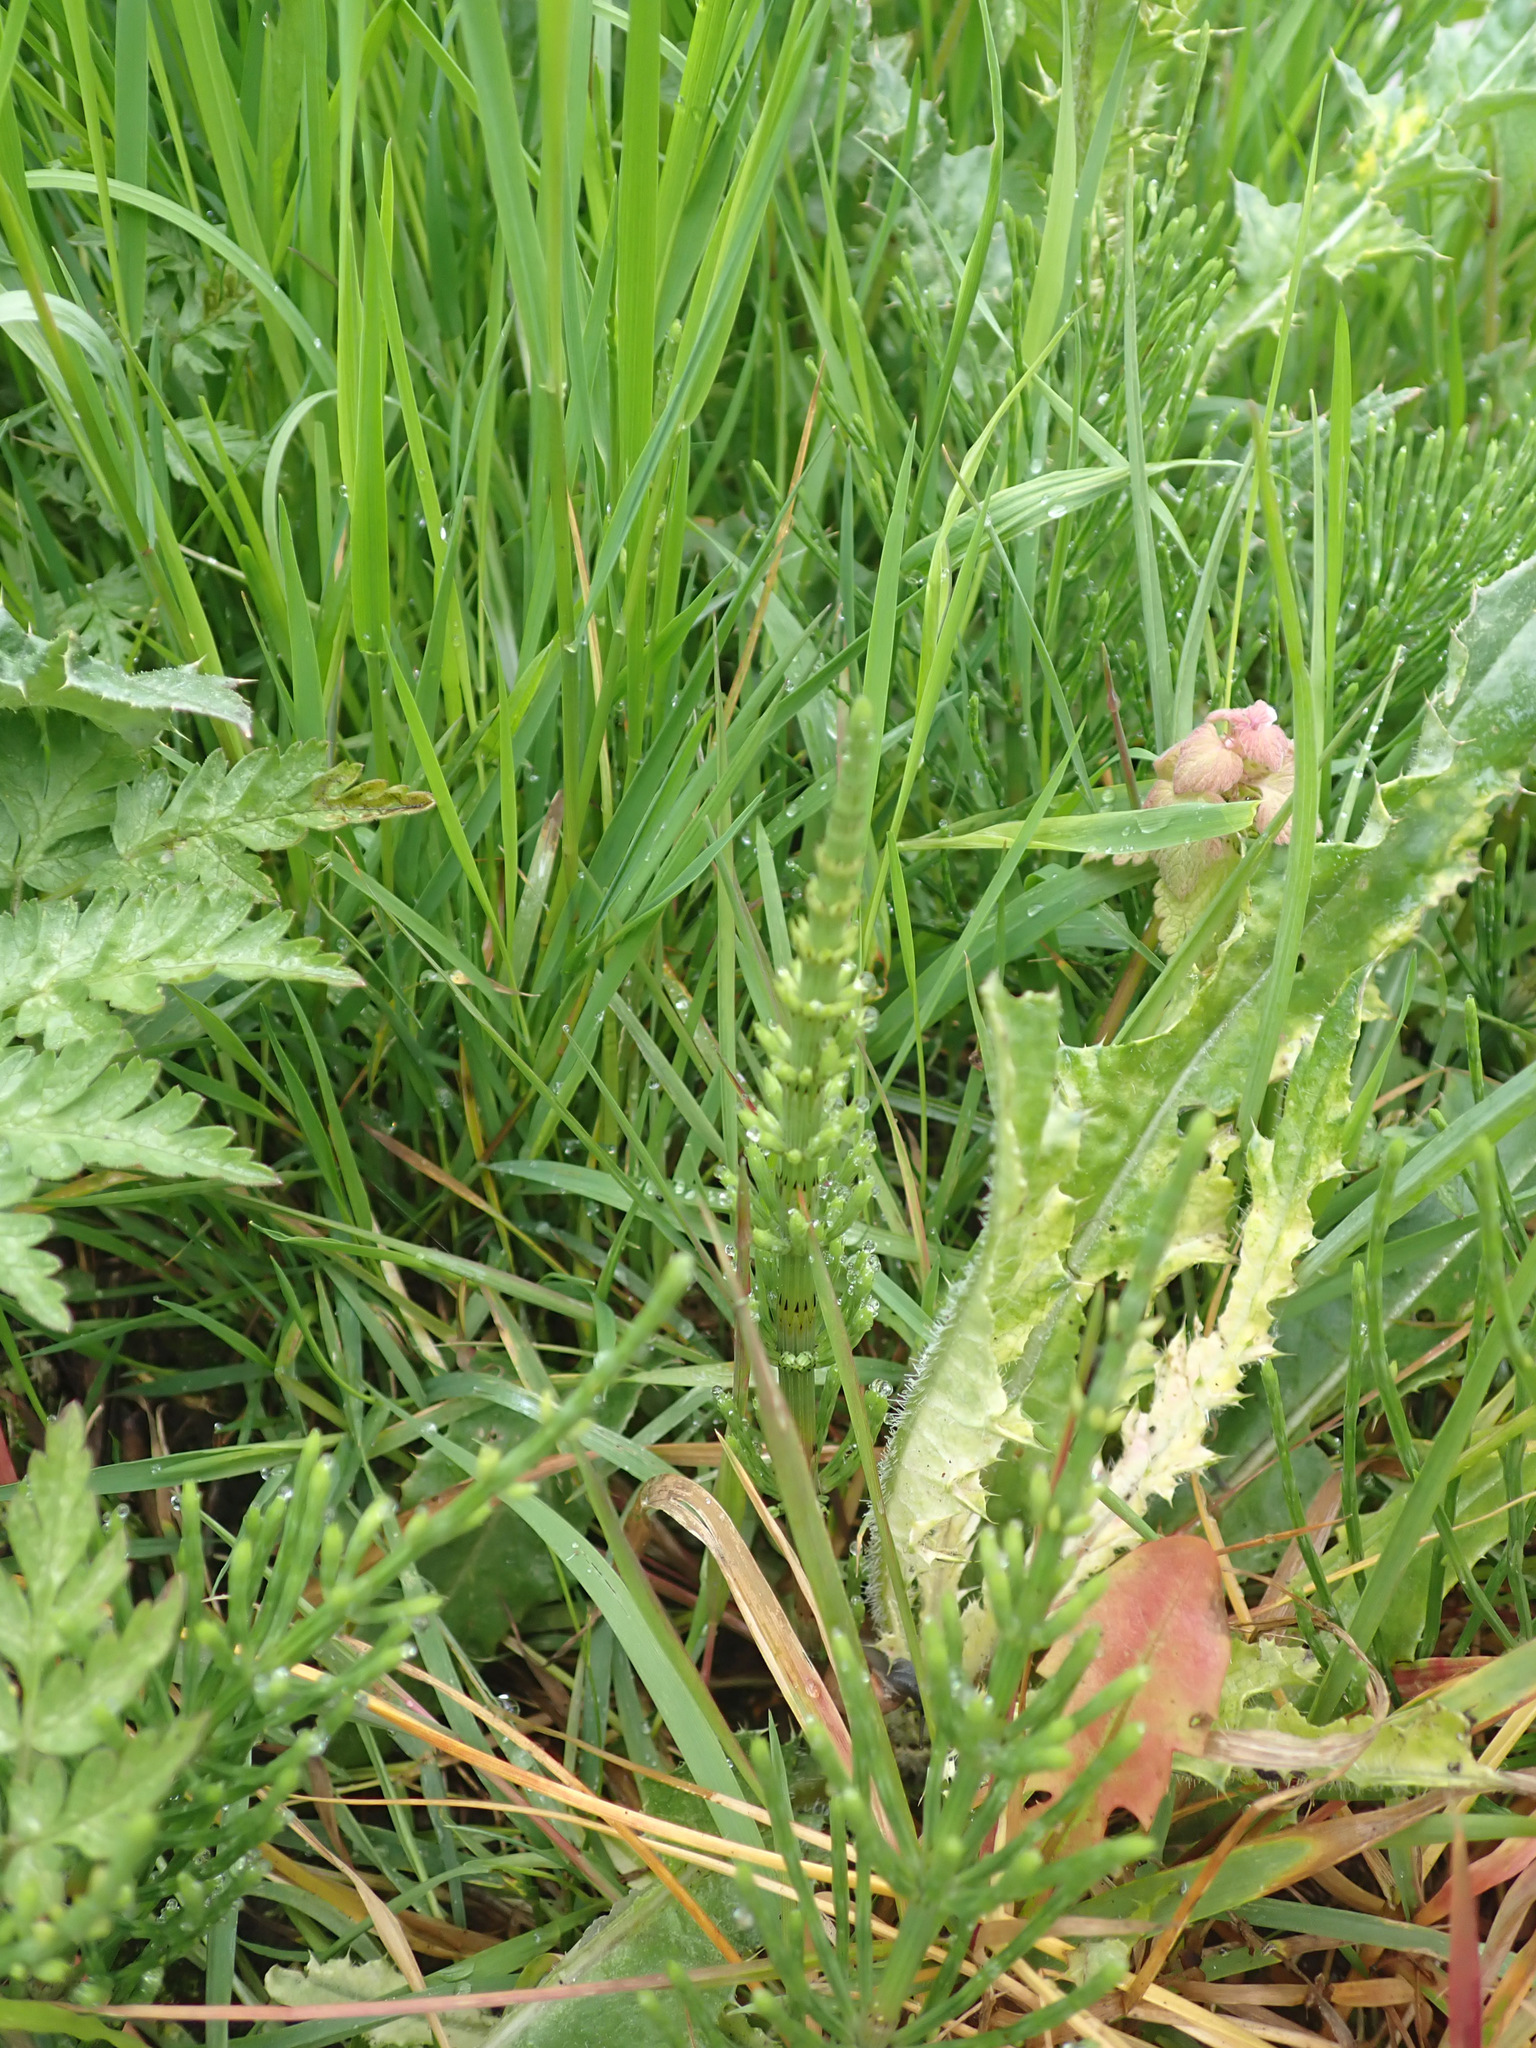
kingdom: Plantae
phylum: Tracheophyta
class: Polypodiopsida
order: Equisetales
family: Equisetaceae
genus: Equisetum
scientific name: Equisetum arvense
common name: Field horsetail
